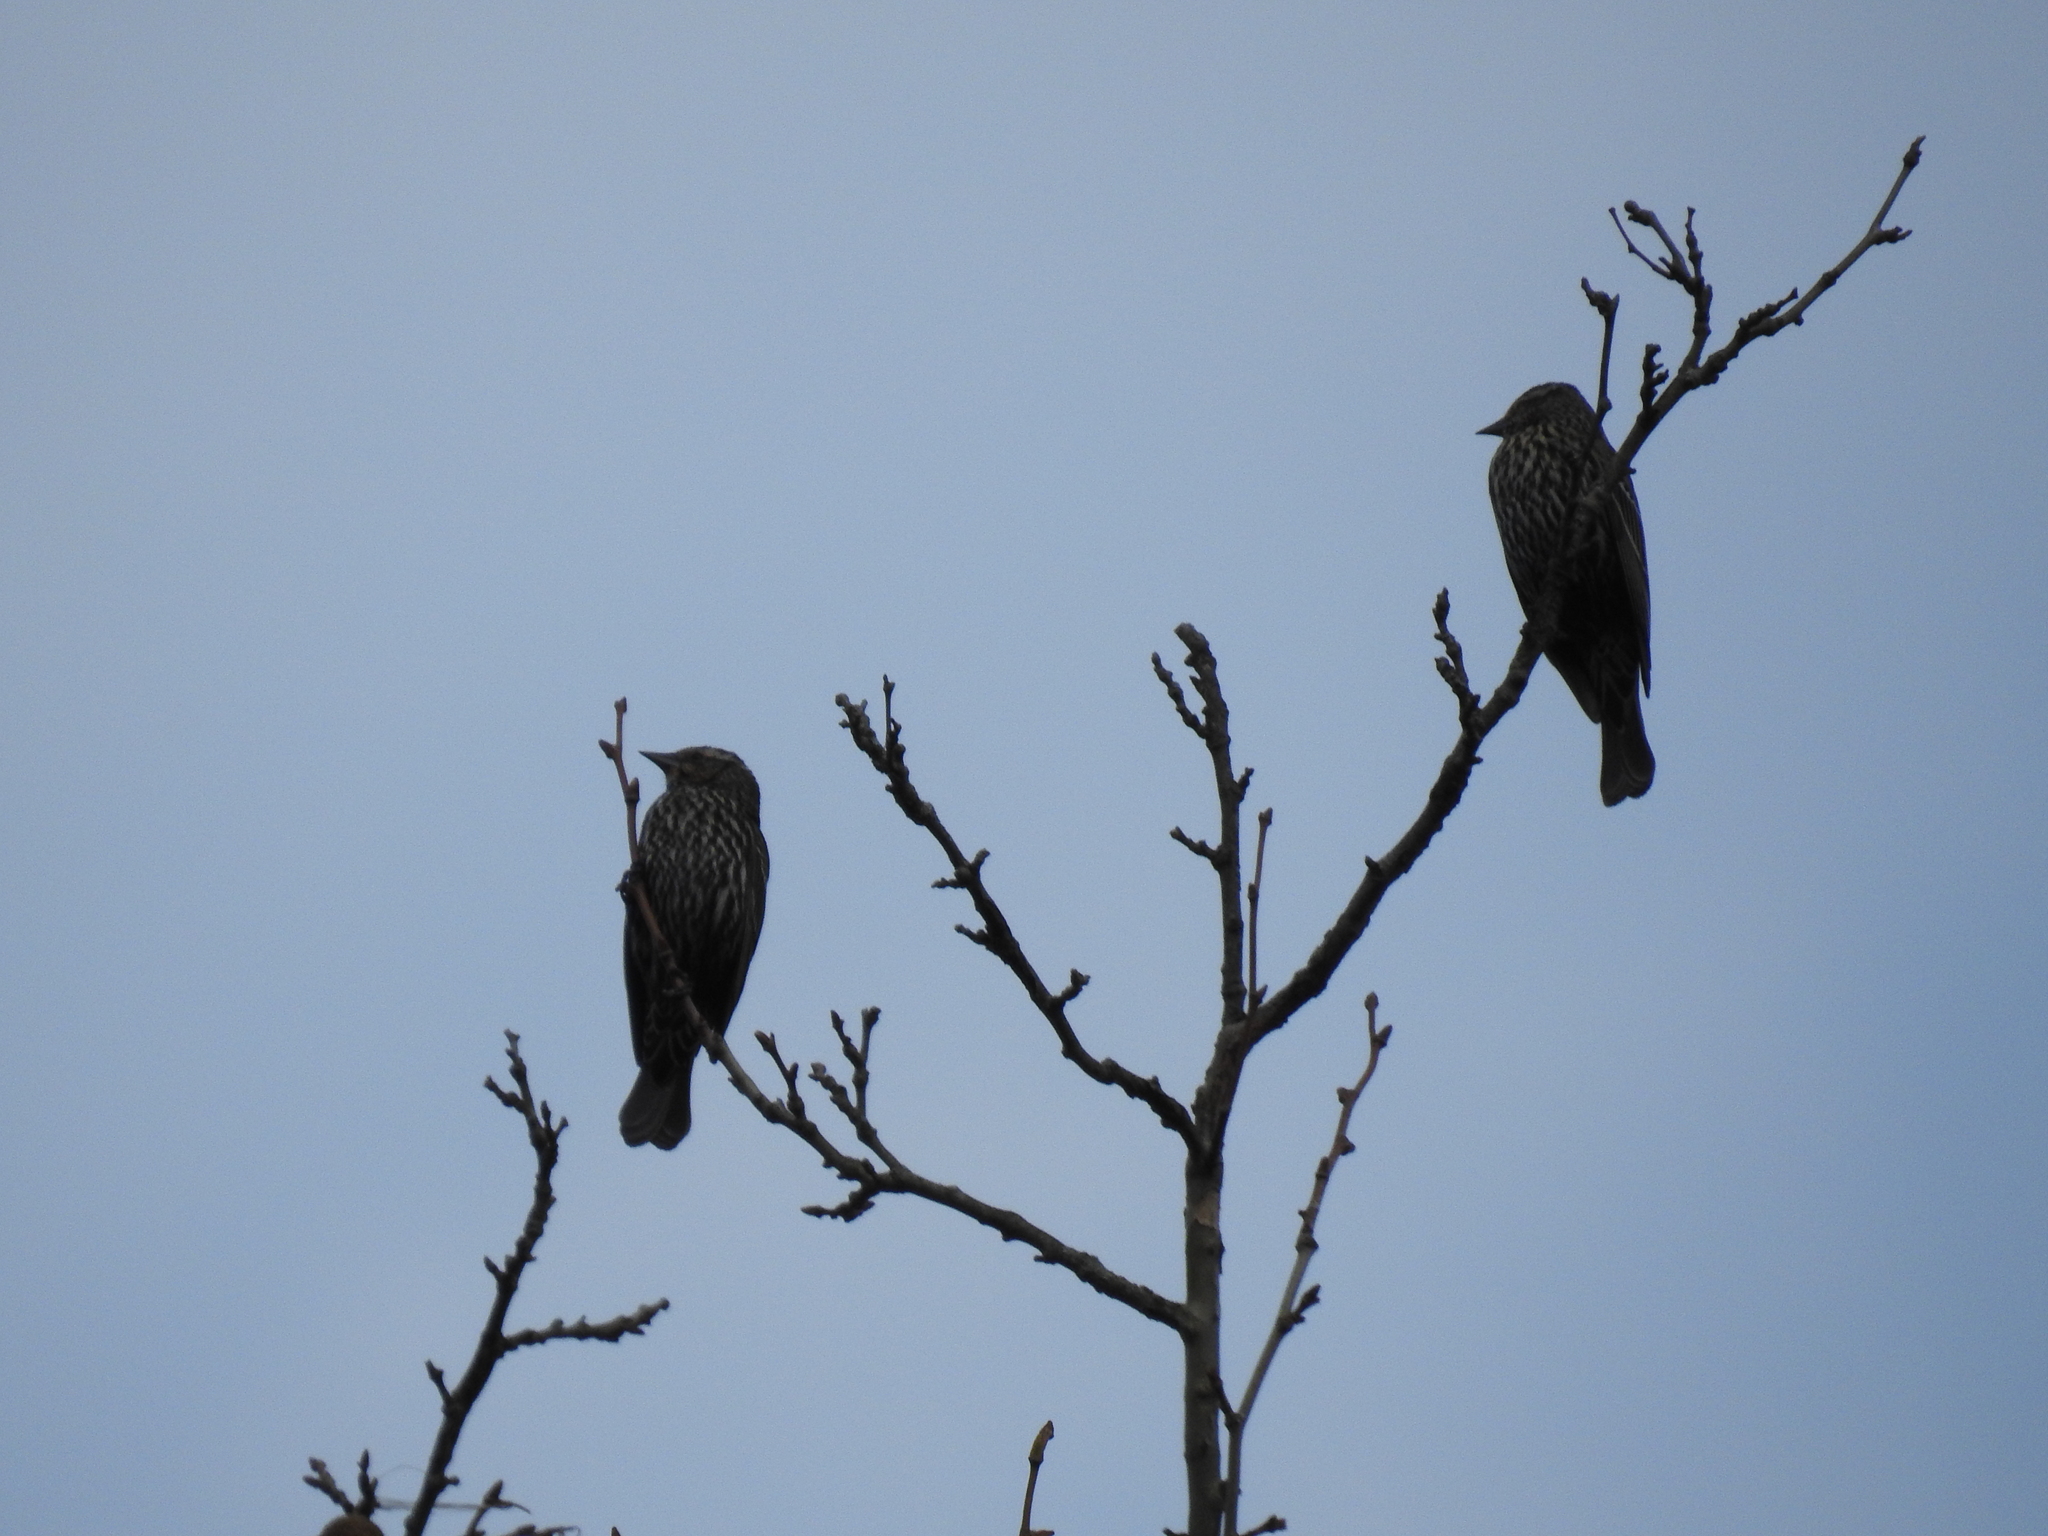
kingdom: Animalia
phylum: Chordata
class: Aves
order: Passeriformes
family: Icteridae
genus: Agelaius
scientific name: Agelaius phoeniceus
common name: Red-winged blackbird
